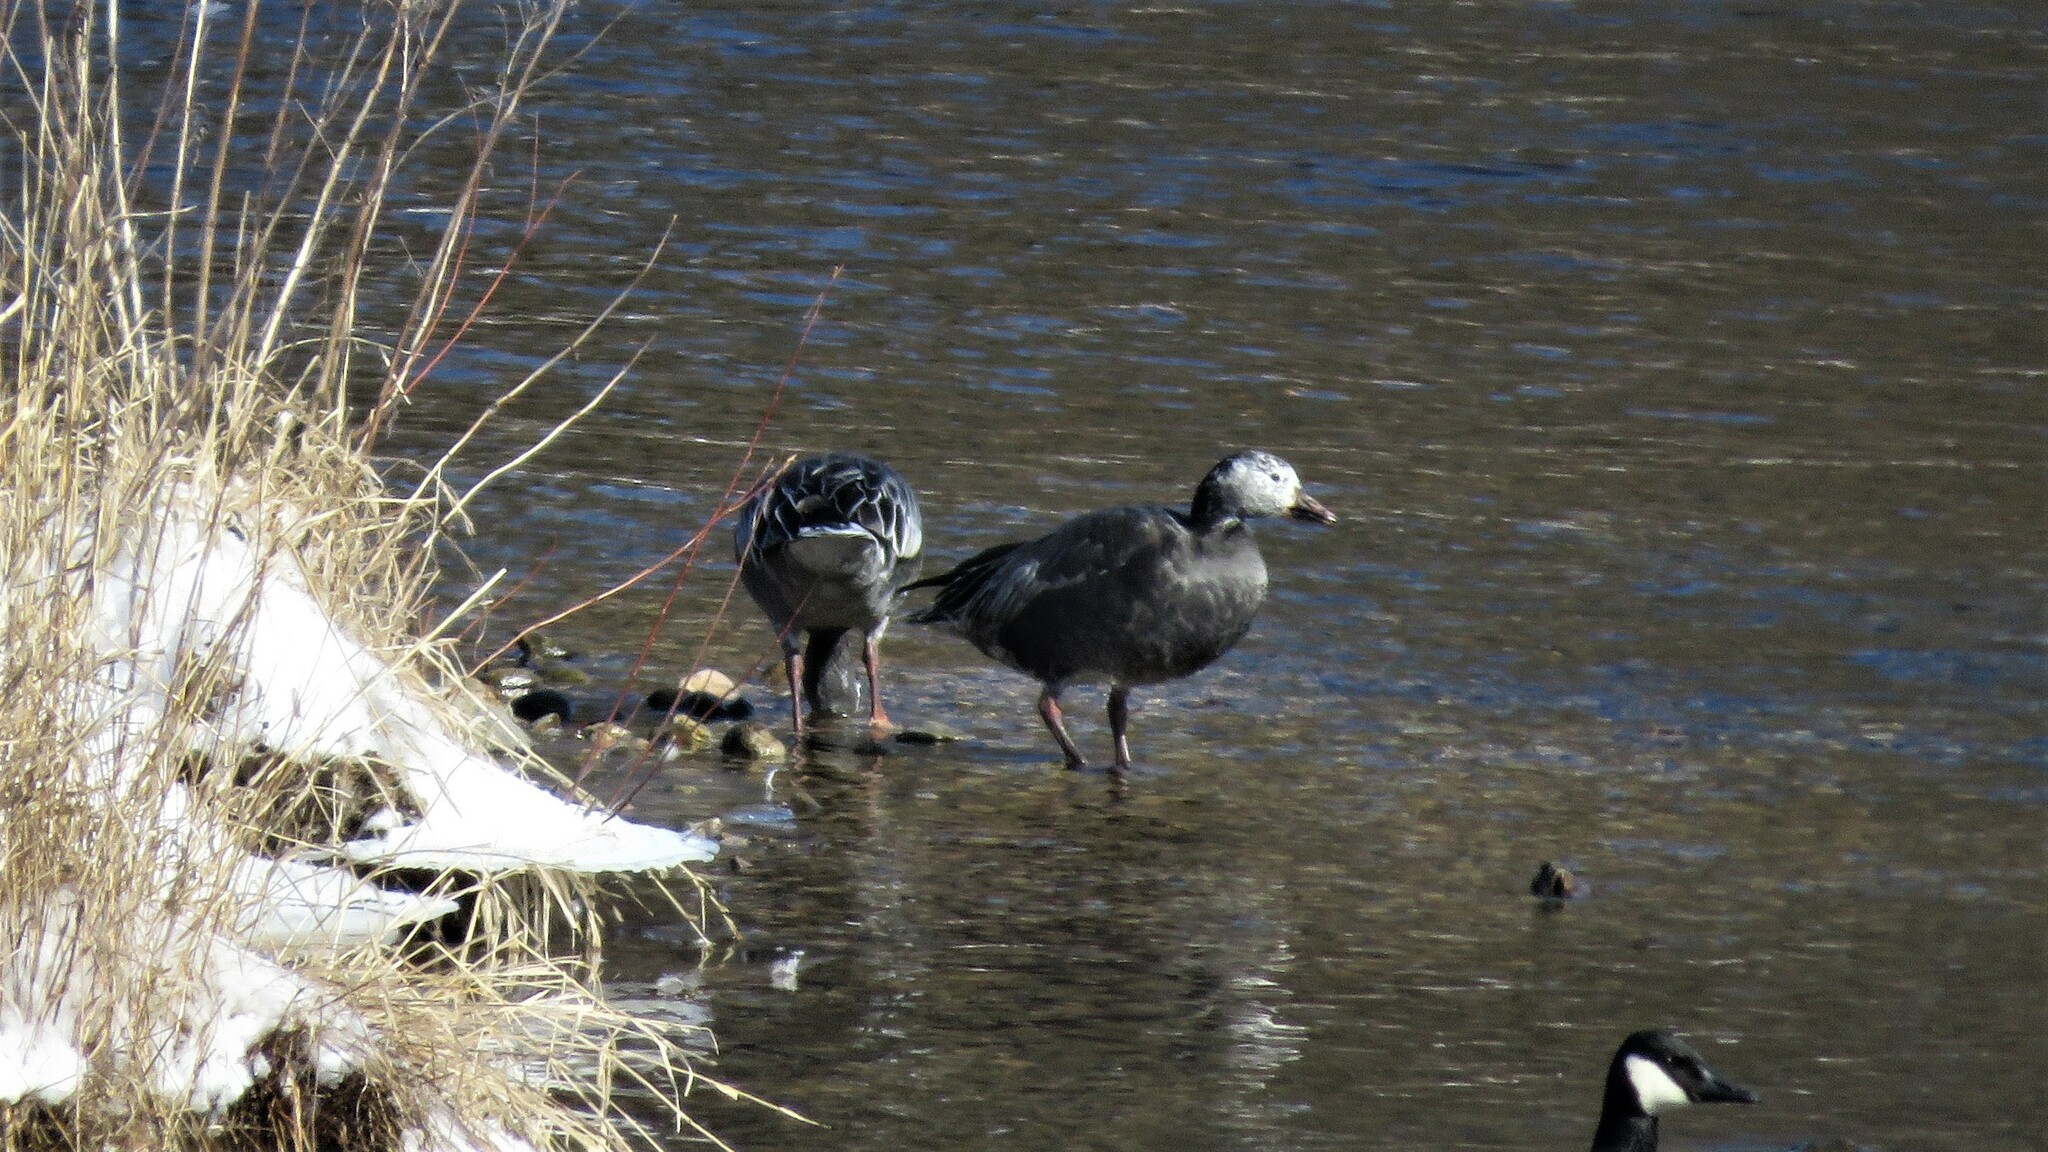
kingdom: Animalia
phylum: Chordata
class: Aves
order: Anseriformes
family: Anatidae
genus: Anser
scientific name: Anser caerulescens
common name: Snow goose
